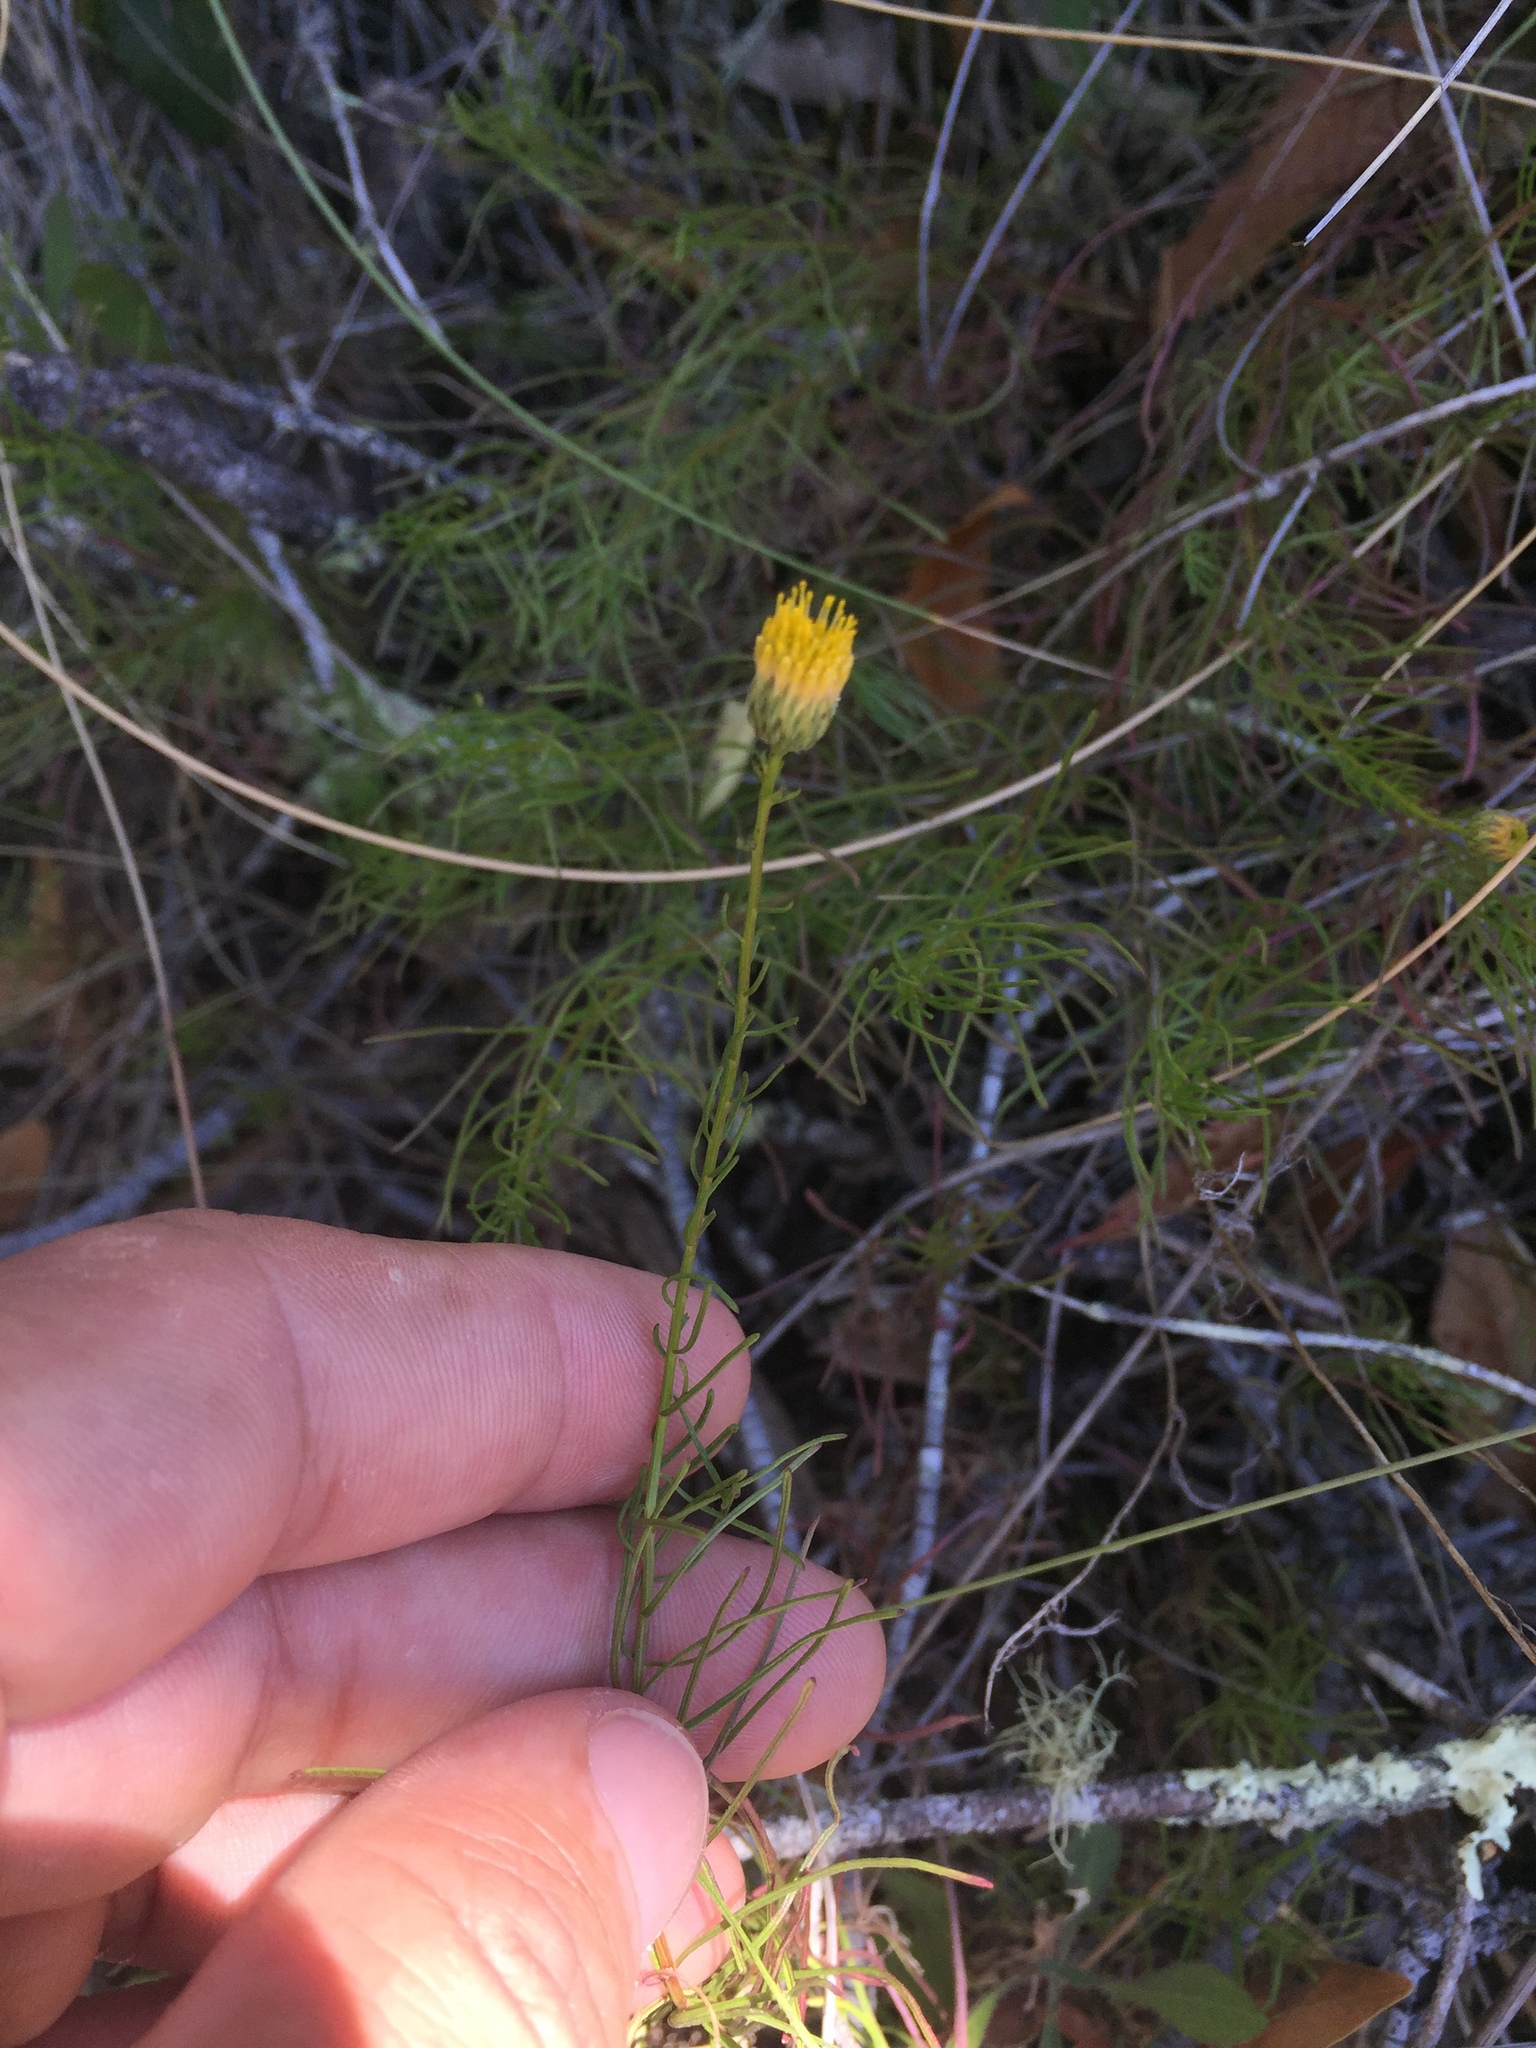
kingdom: Plantae
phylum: Tracheophyta
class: Magnoliopsida
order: Asterales
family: Asteraceae
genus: Erigeron
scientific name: Erigeron greenei
